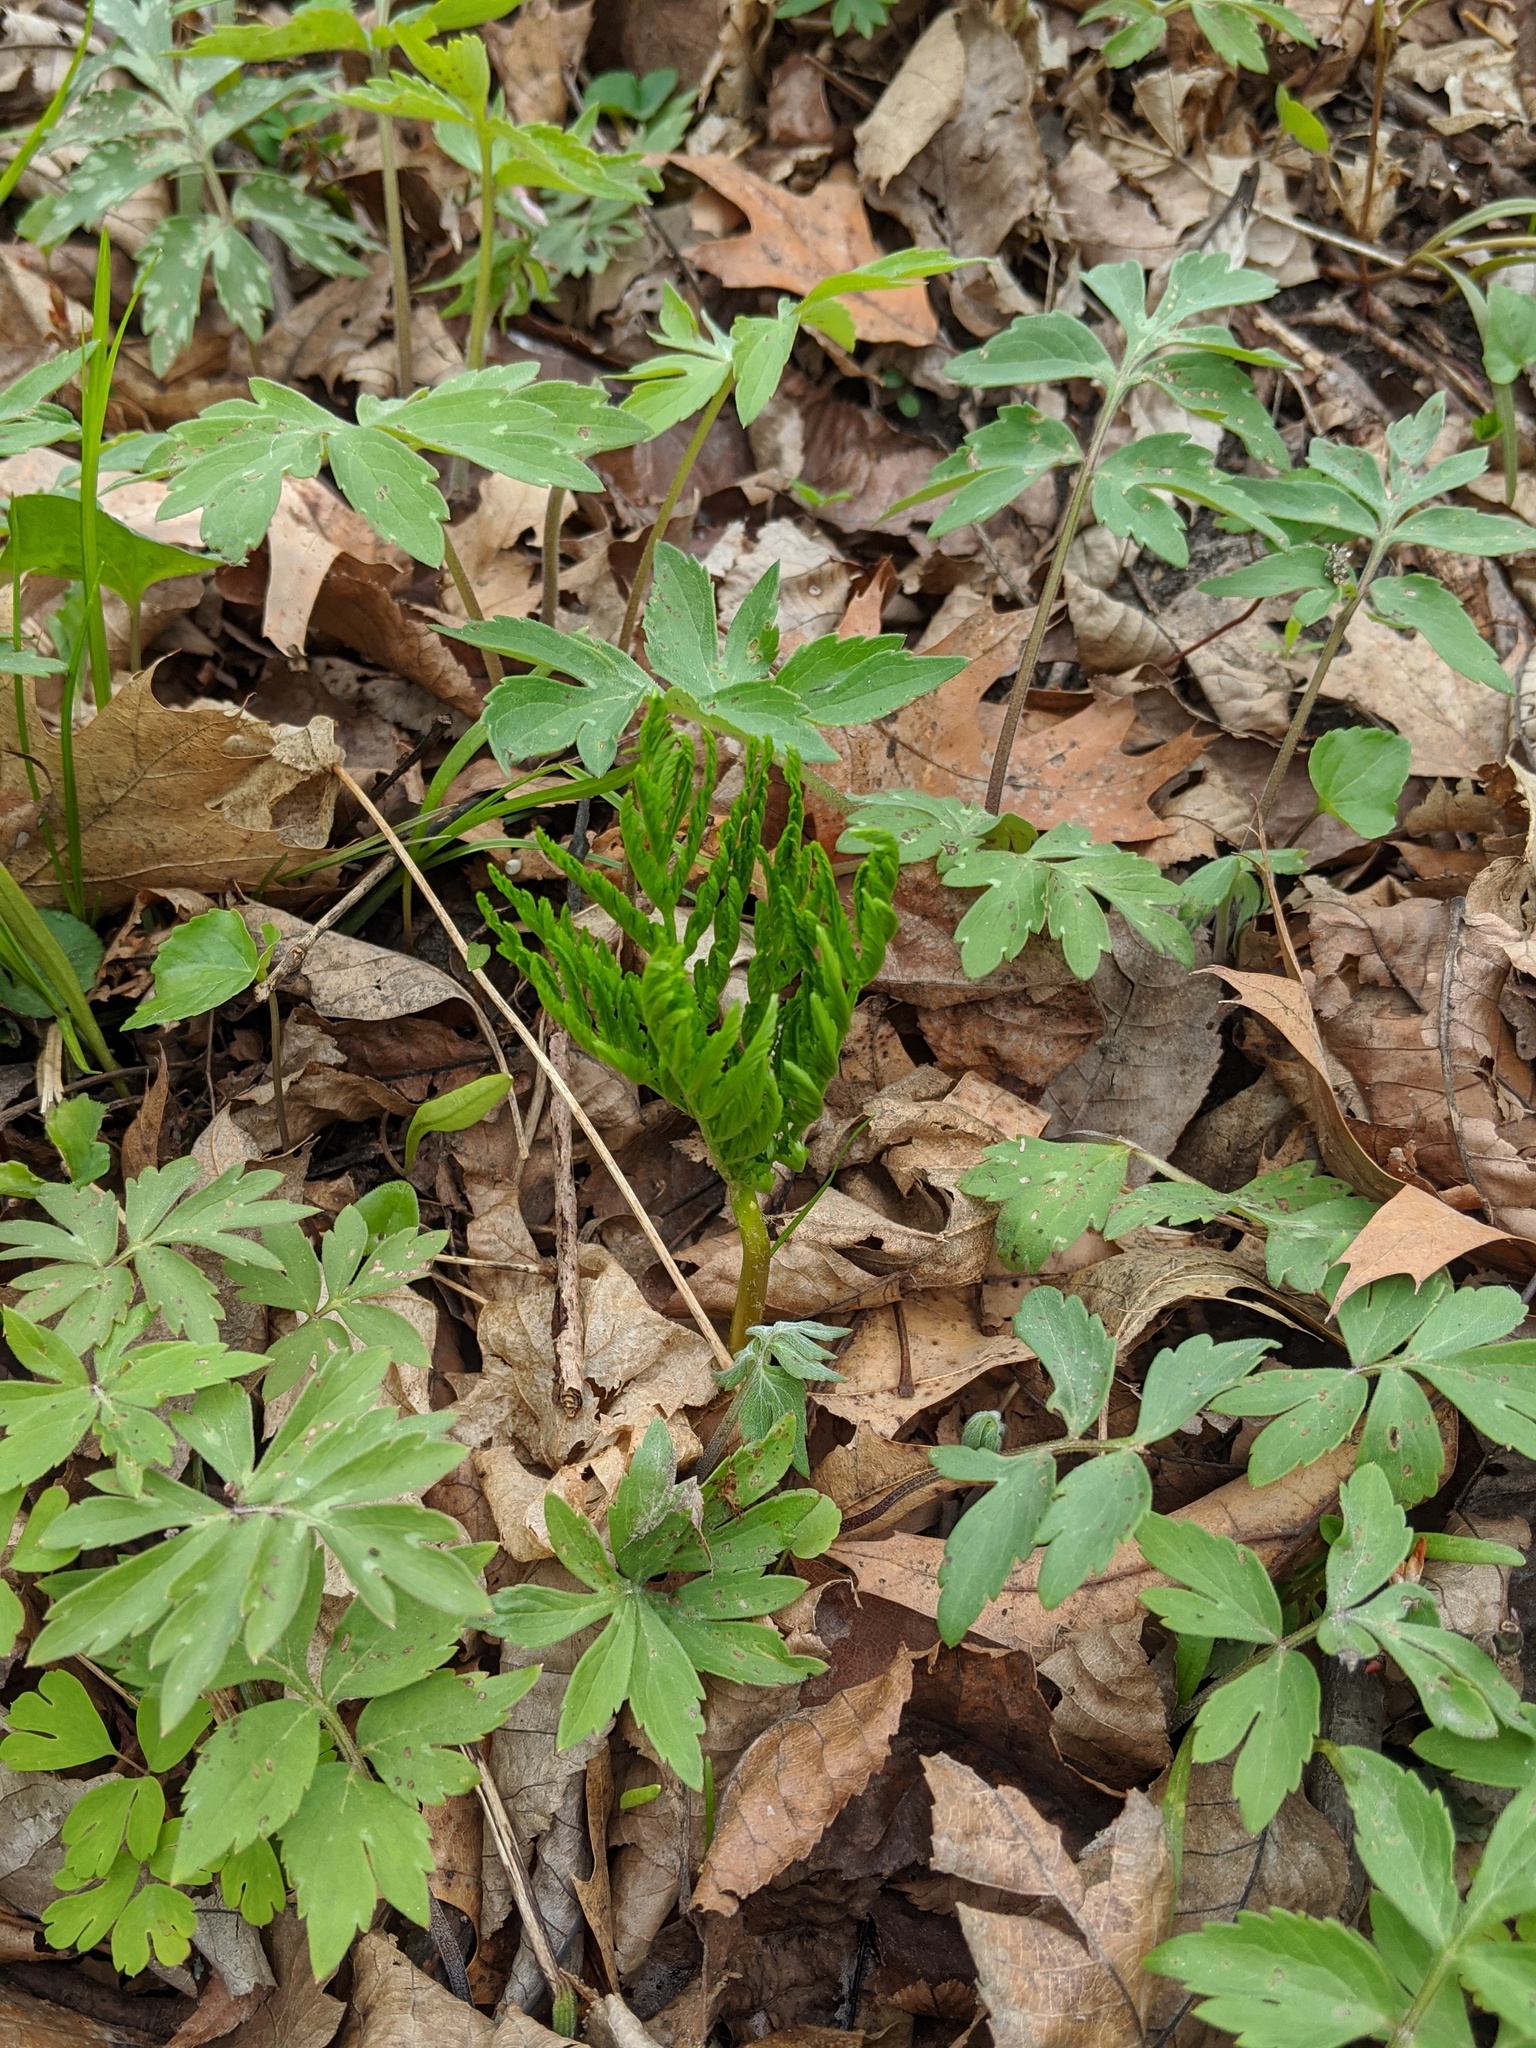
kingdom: Plantae
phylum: Tracheophyta
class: Polypodiopsida
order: Ophioglossales
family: Ophioglossaceae
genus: Botrypus
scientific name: Botrypus virginianus
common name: Common grapefern
